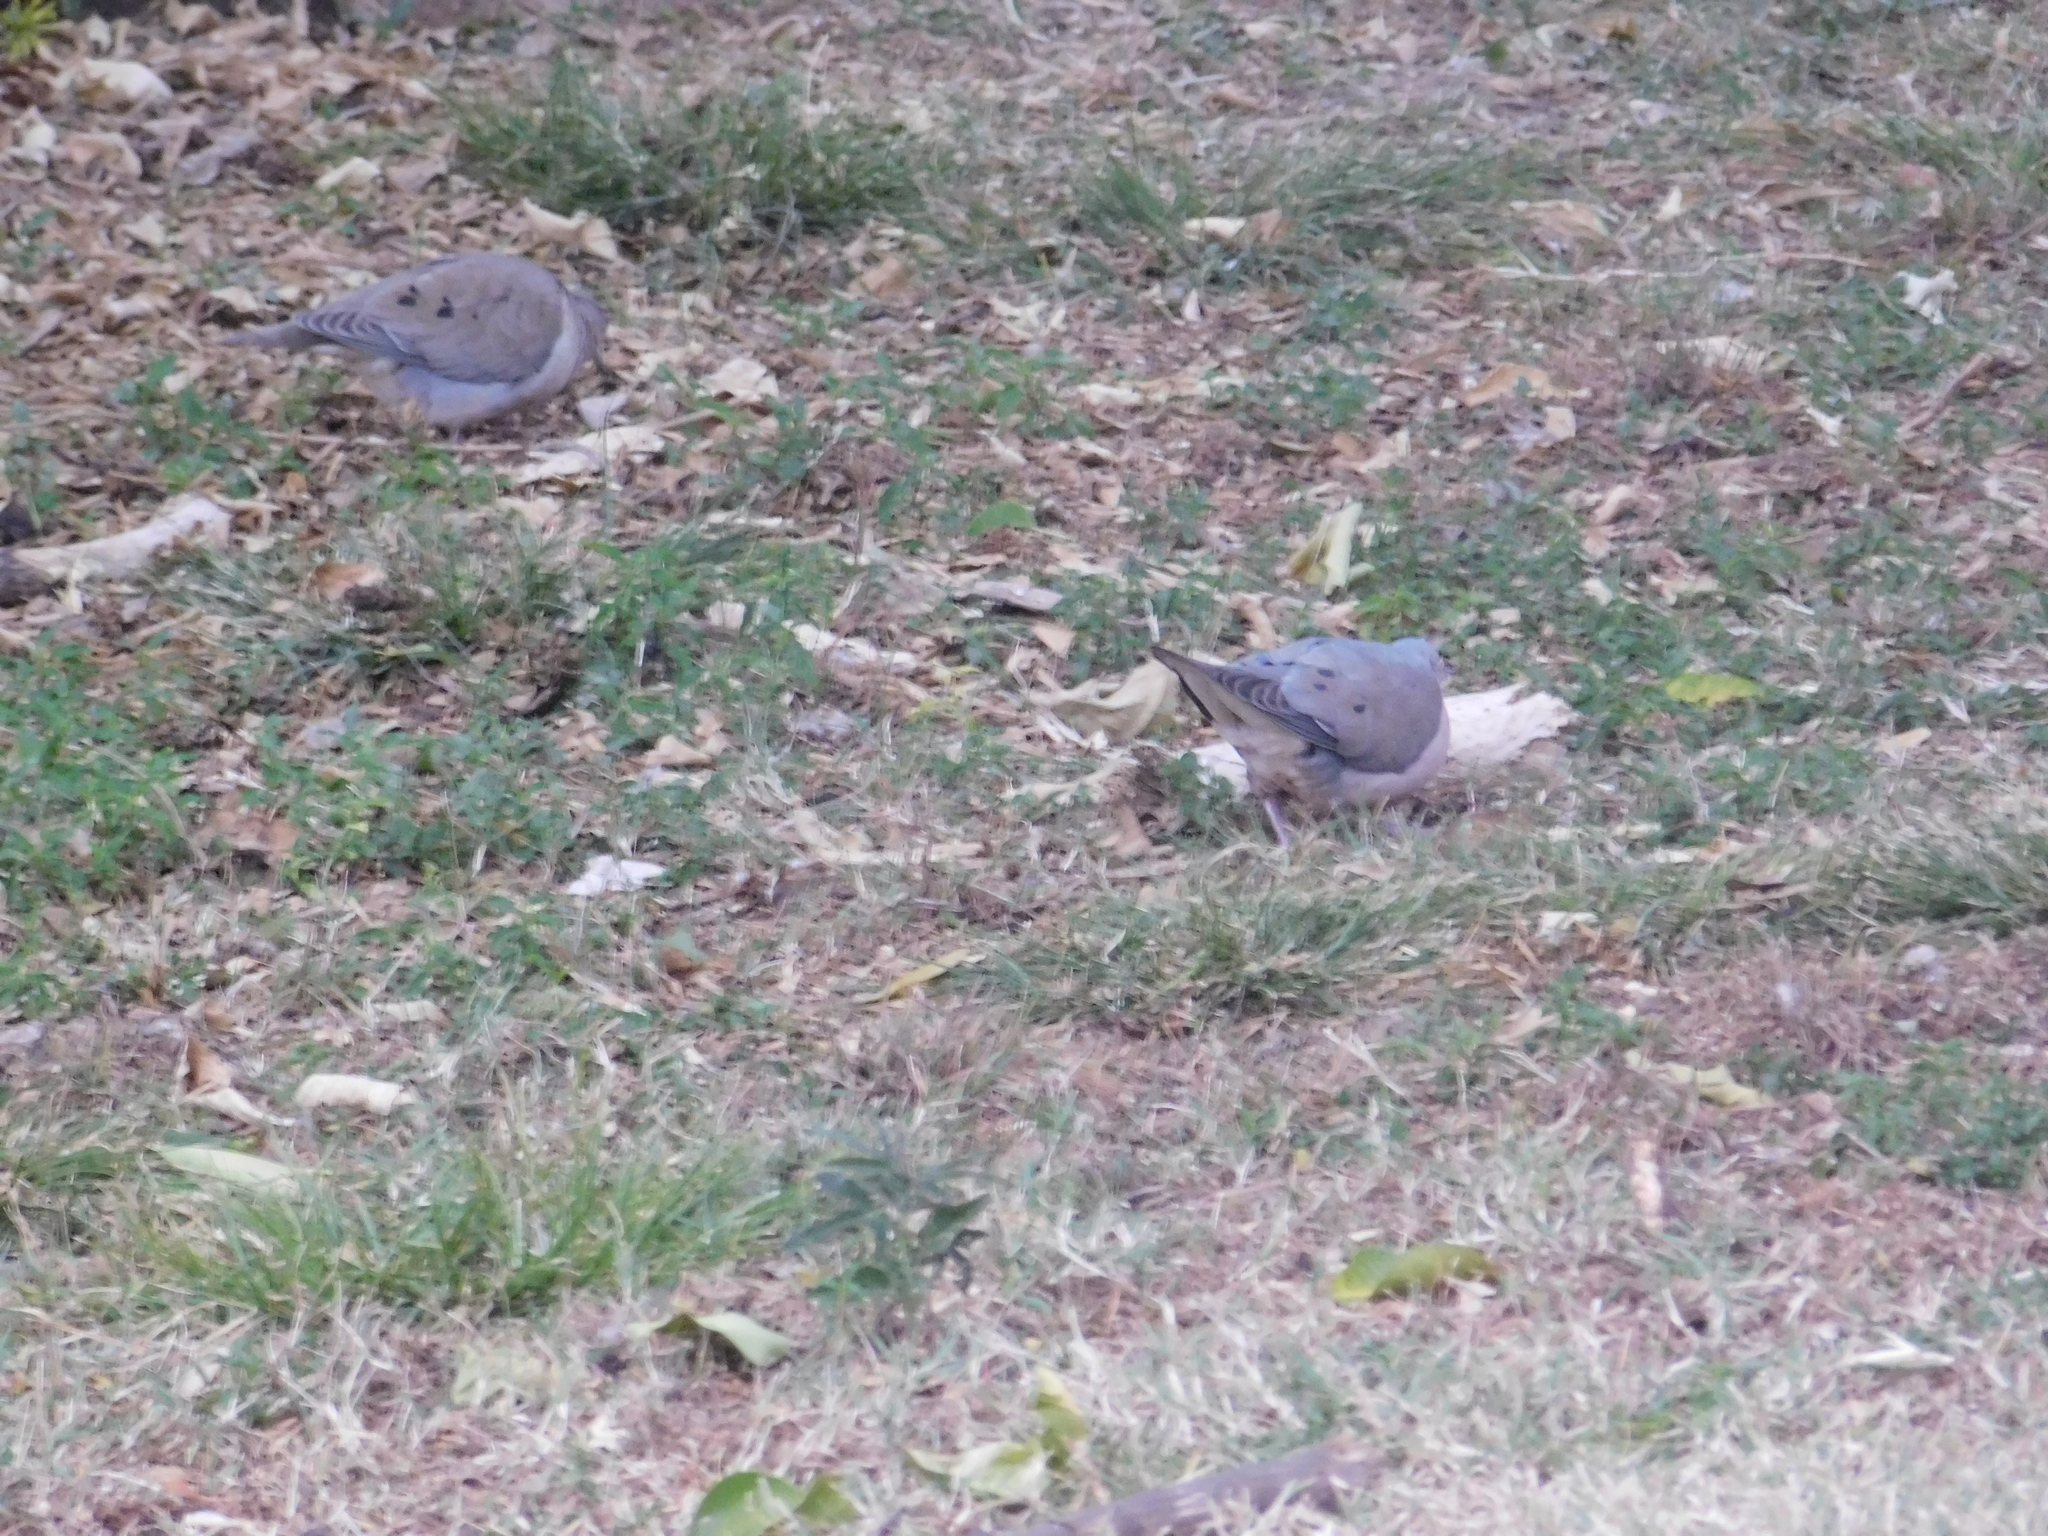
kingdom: Animalia
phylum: Chordata
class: Aves
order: Columbiformes
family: Columbidae
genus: Zenaida
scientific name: Zenaida auriculata
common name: Eared dove
